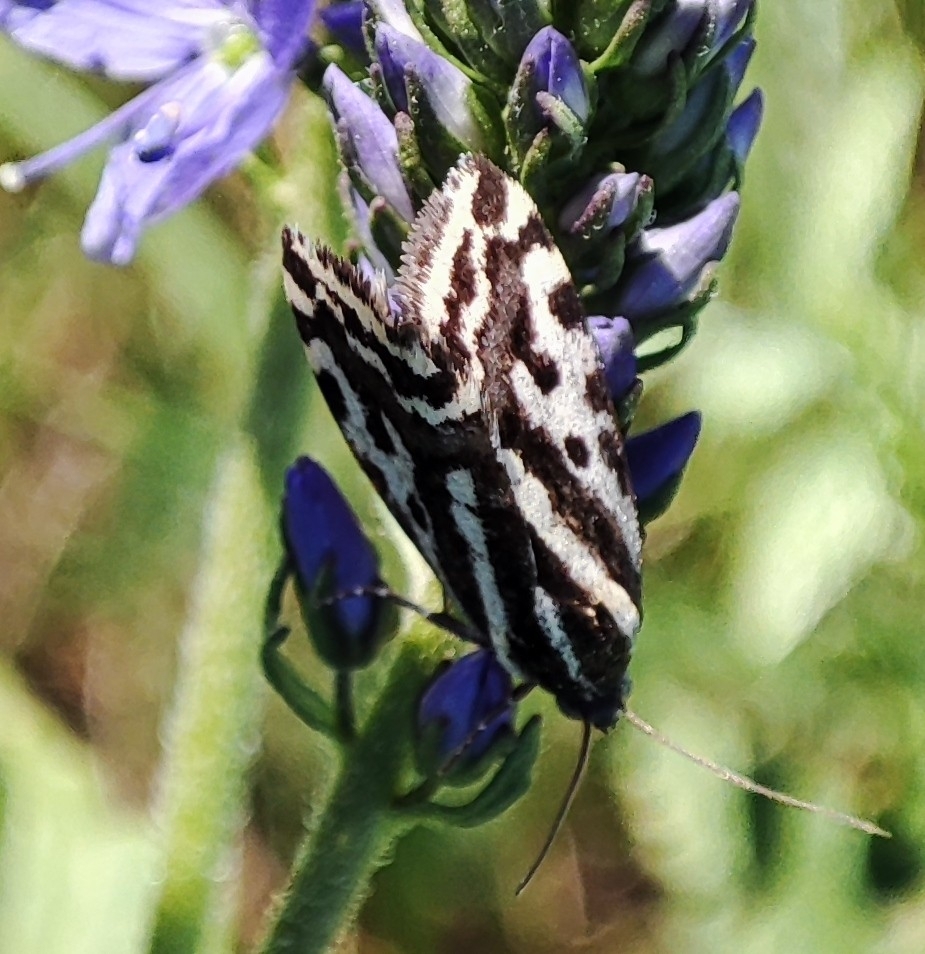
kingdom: Animalia
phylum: Arthropoda
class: Insecta
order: Lepidoptera
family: Noctuidae
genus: Acontia
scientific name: Acontia trabealis
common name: Spotted sulphur
